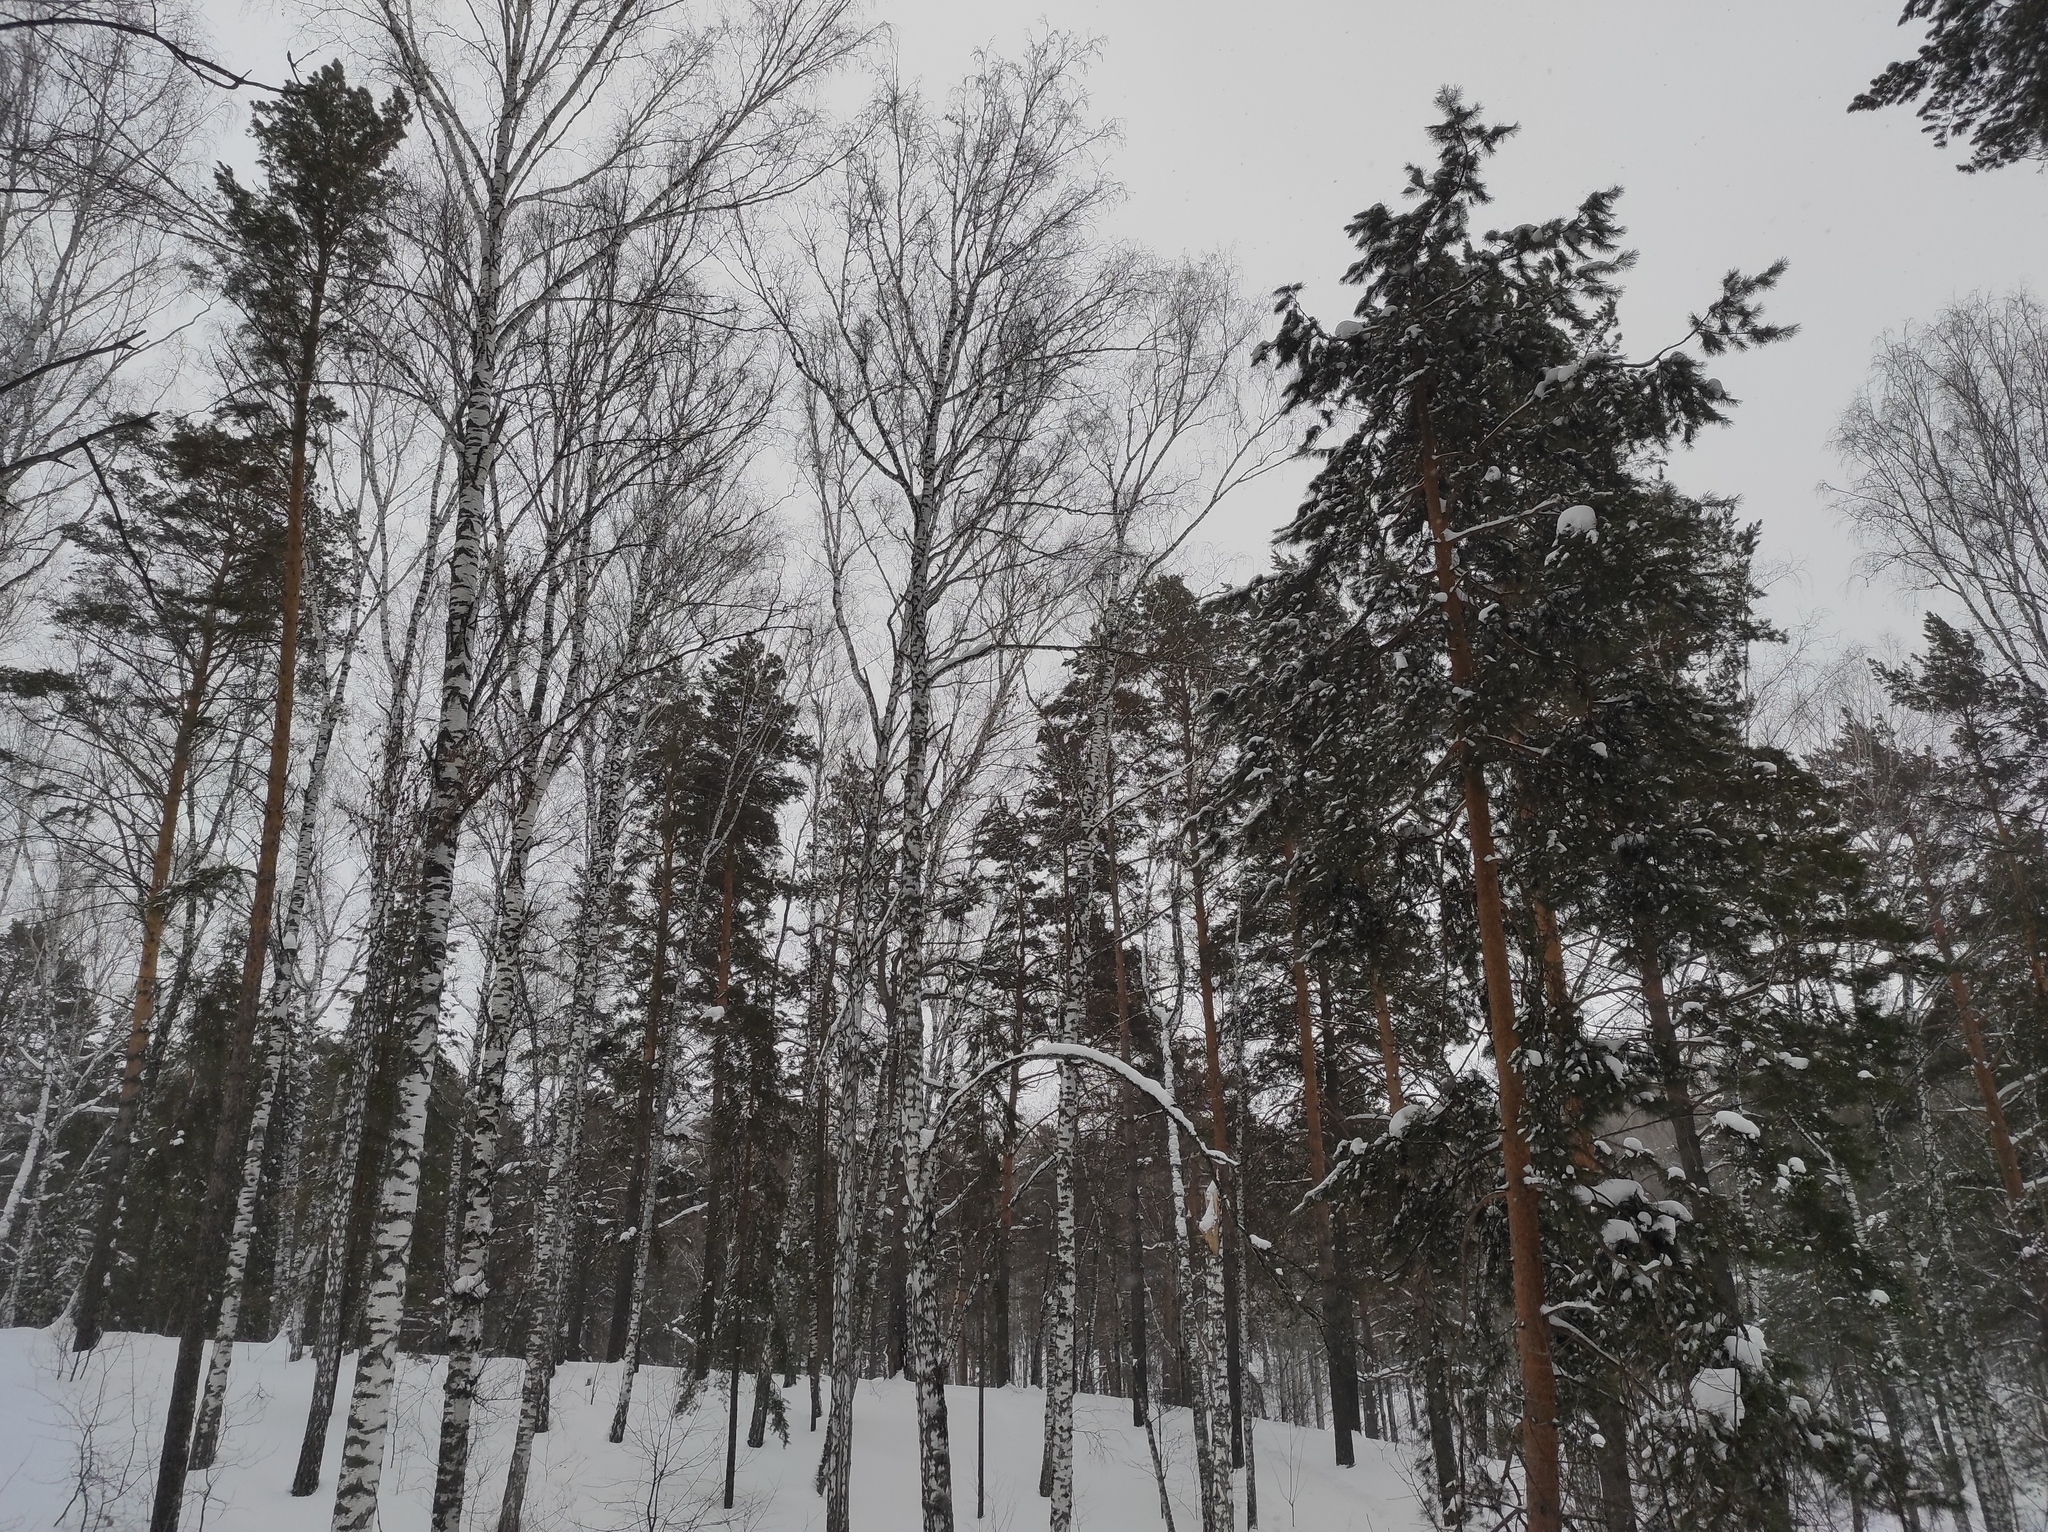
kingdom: Plantae
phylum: Tracheophyta
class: Magnoliopsida
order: Fagales
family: Betulaceae
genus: Betula
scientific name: Betula pendula
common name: Silver birch
